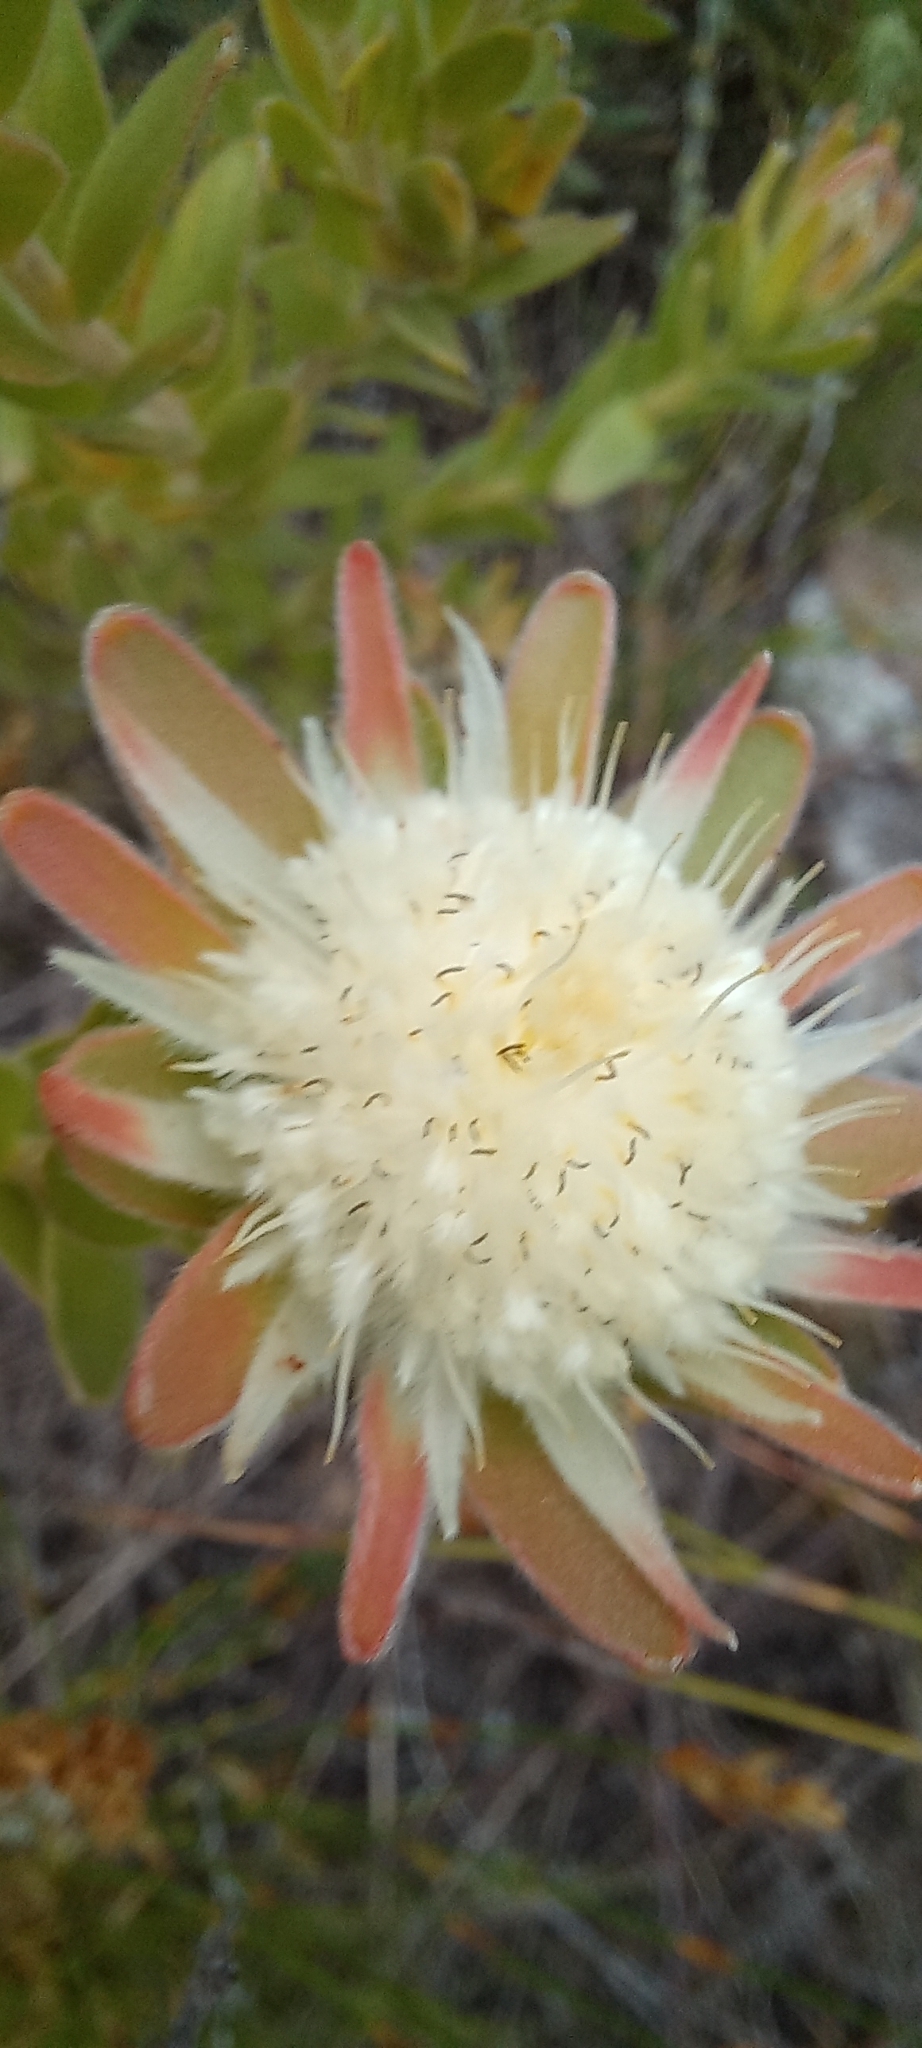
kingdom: Plantae
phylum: Tracheophyta
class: Magnoliopsida
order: Proteales
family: Proteaceae
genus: Diastella
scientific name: Diastella thymelaeoides
